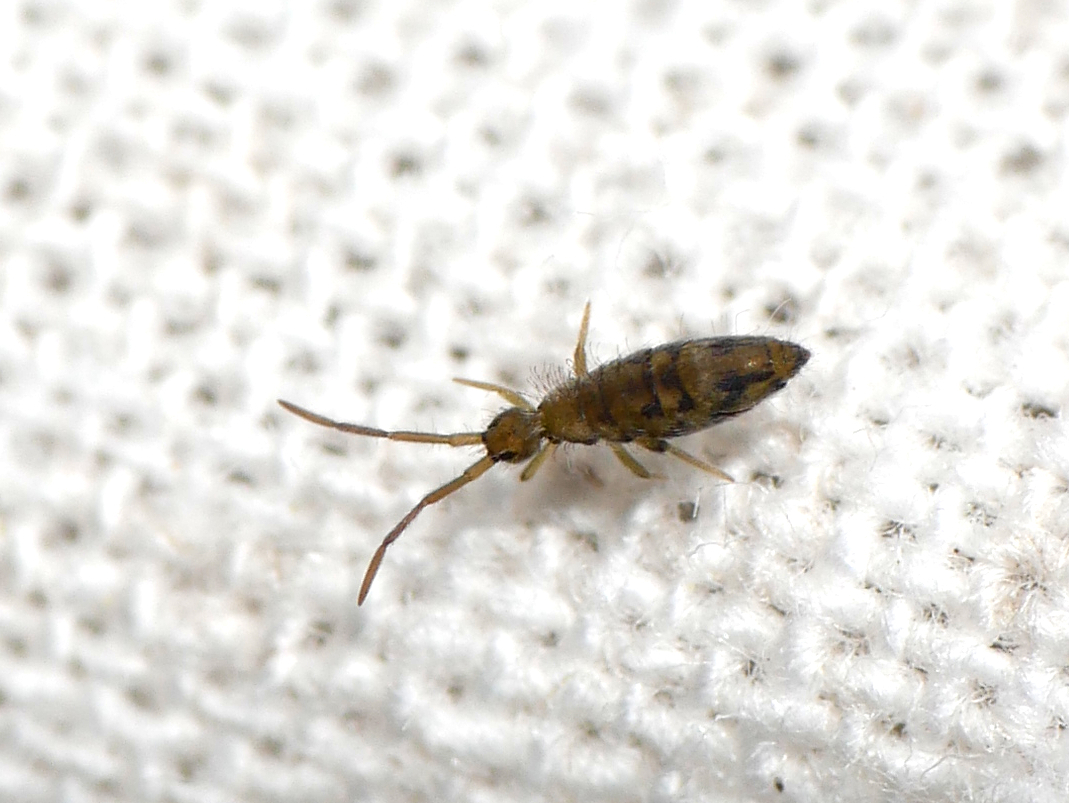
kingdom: Animalia
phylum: Arthropoda
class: Collembola
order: Entomobryomorpha
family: Entomobryidae
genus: Entomobrya
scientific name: Entomobrya nivalis
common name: Cosmopolitan springtail
